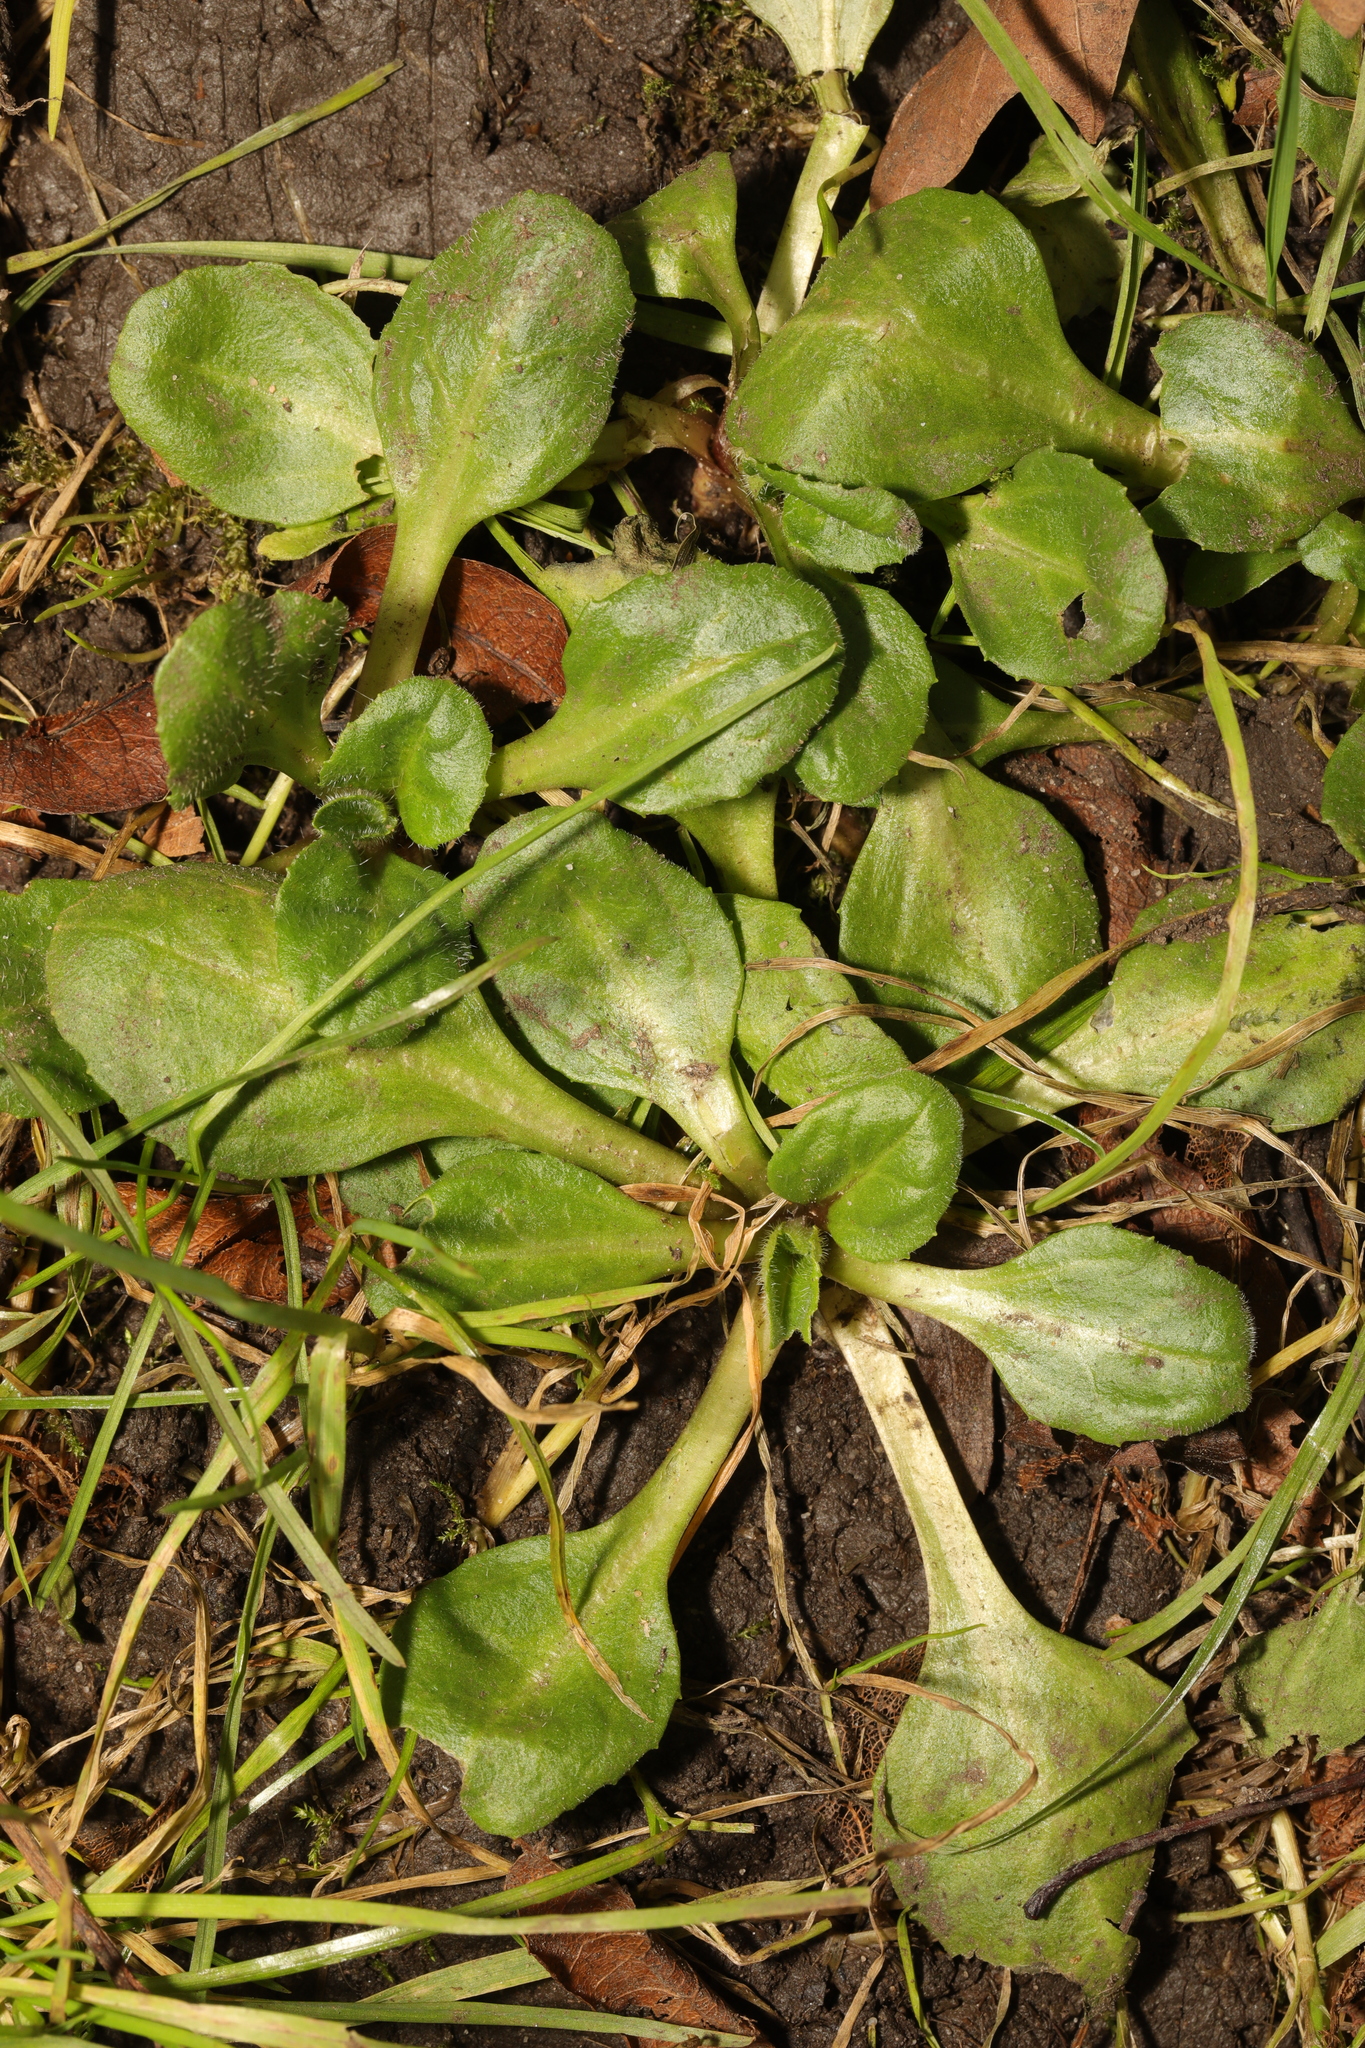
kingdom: Plantae
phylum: Tracheophyta
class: Magnoliopsida
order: Asterales
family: Asteraceae
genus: Bellis
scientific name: Bellis perennis
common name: Lawndaisy
